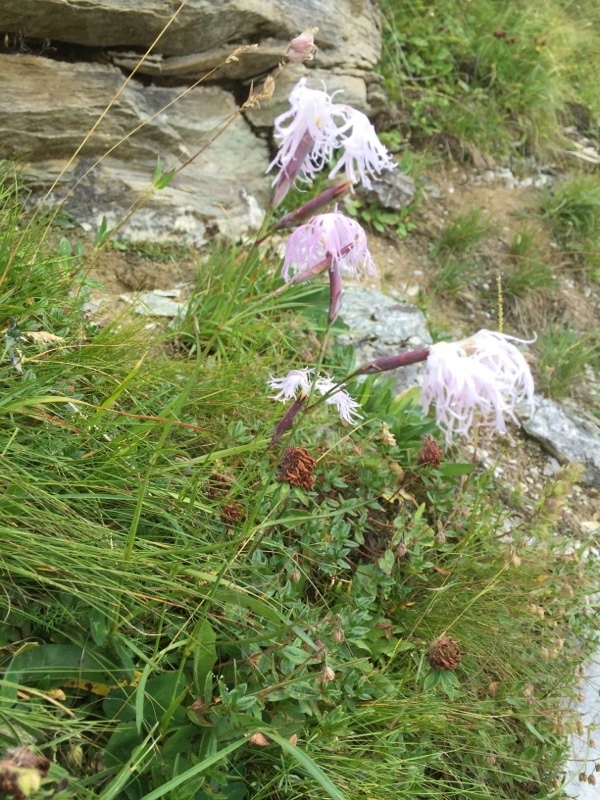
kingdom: Plantae
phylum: Tracheophyta
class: Magnoliopsida
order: Caryophyllales
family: Caryophyllaceae
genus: Dianthus
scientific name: Dianthus superbus
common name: Fringed pink
